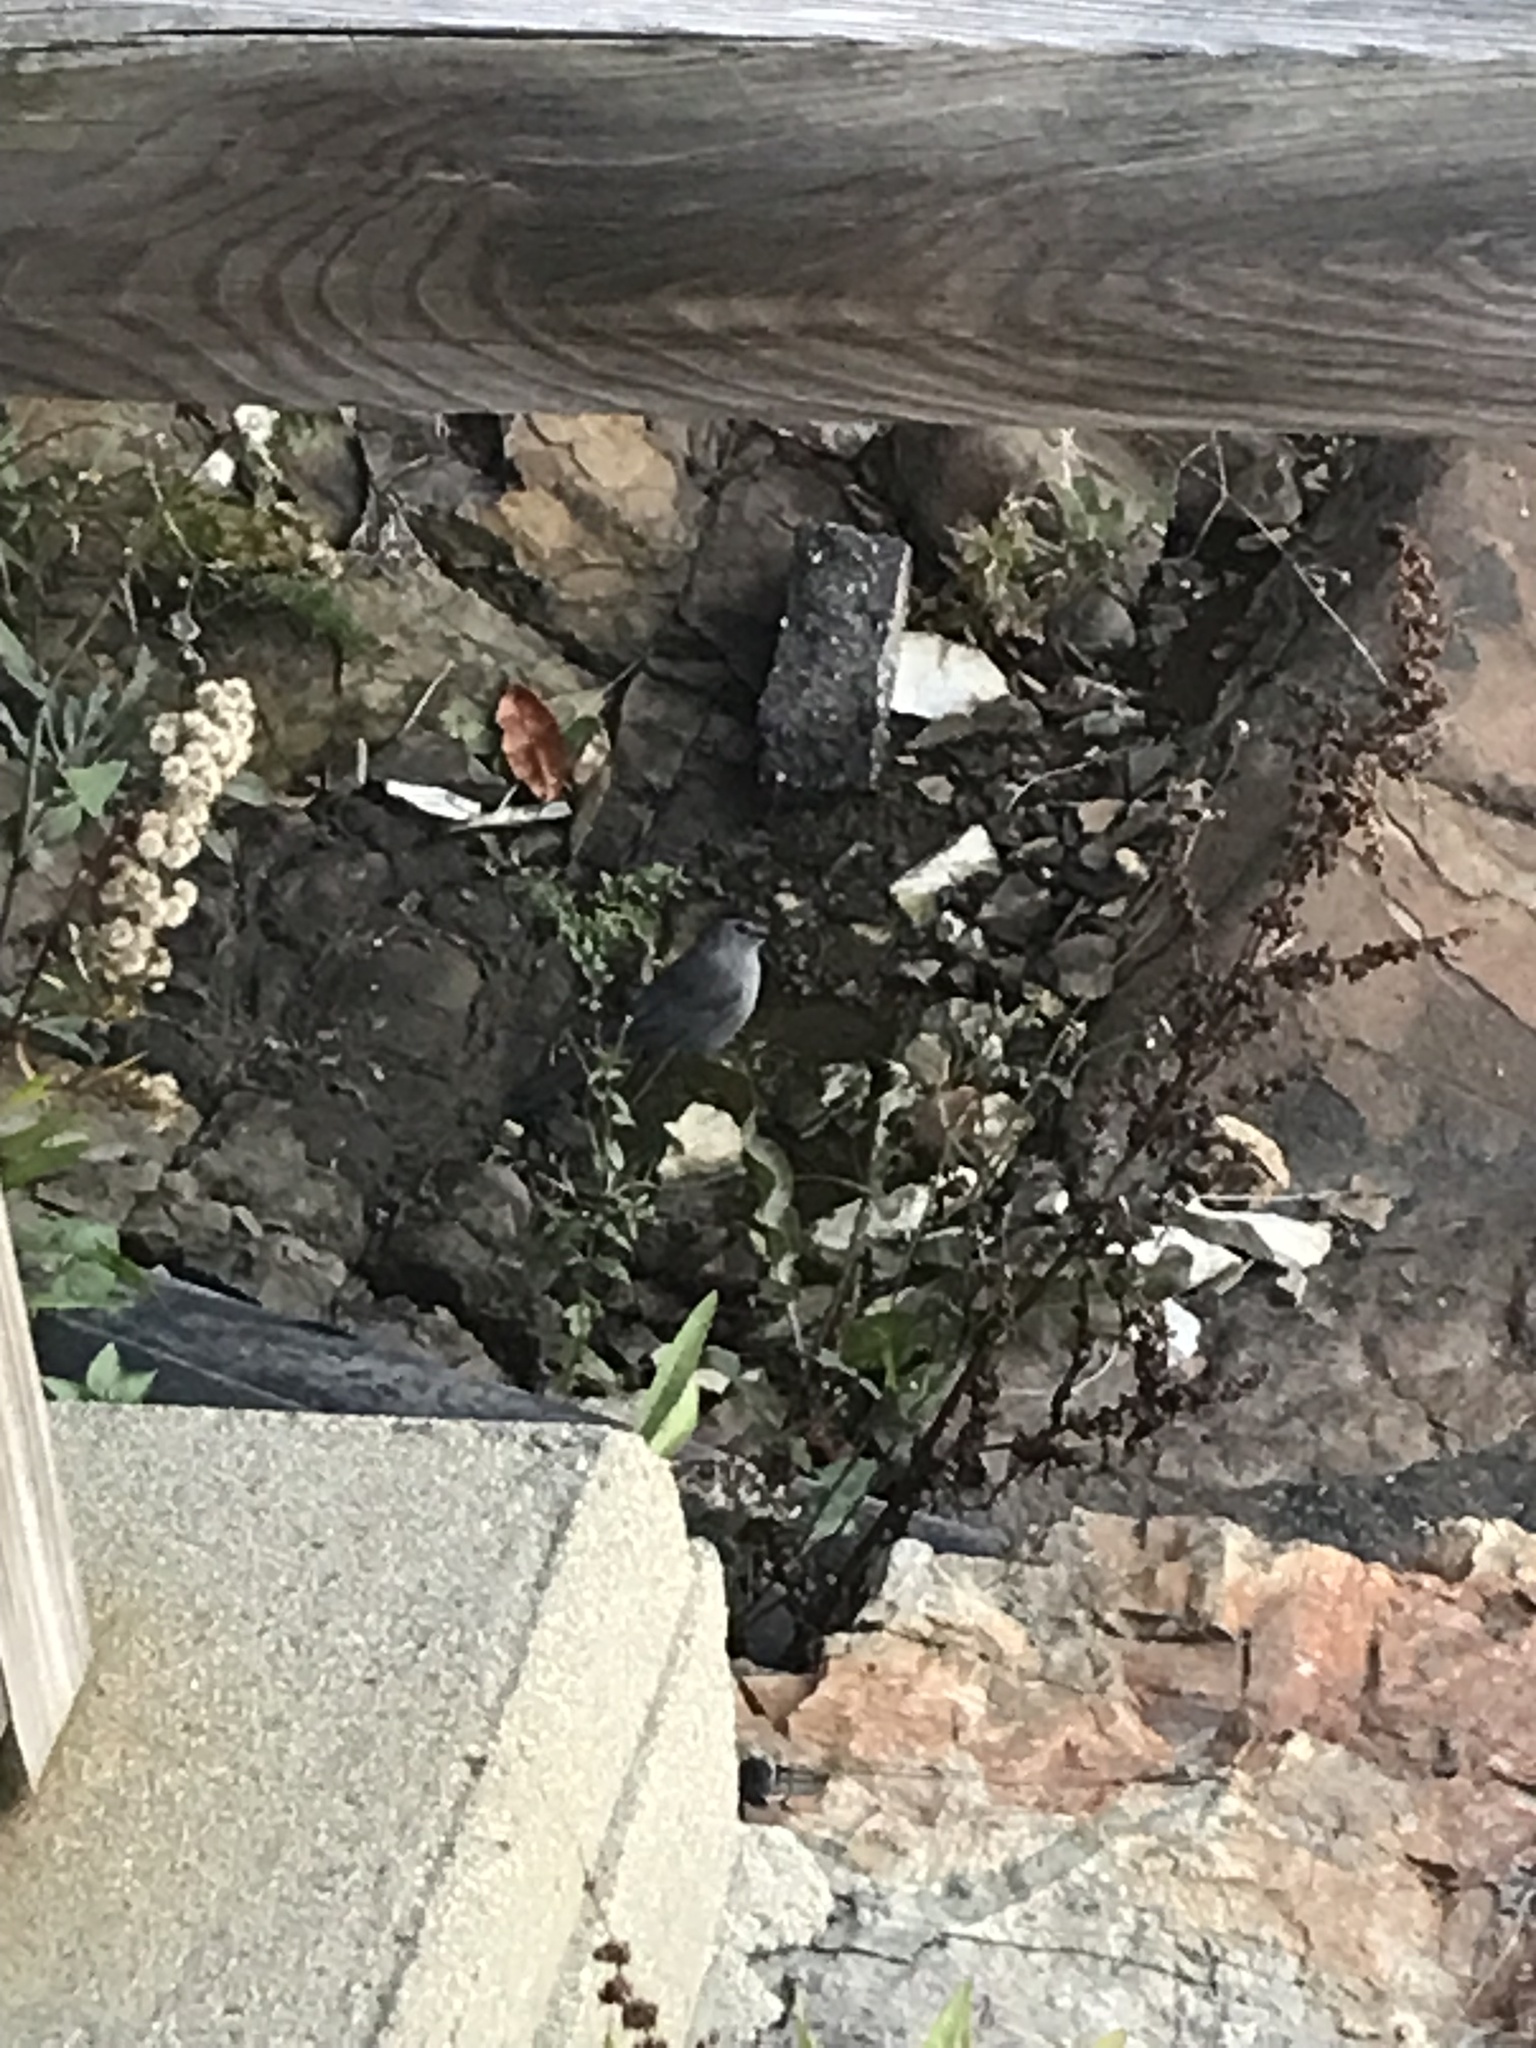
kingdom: Animalia
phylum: Chordata
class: Aves
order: Passeriformes
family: Mimidae
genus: Dumetella
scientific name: Dumetella carolinensis
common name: Gray catbird
